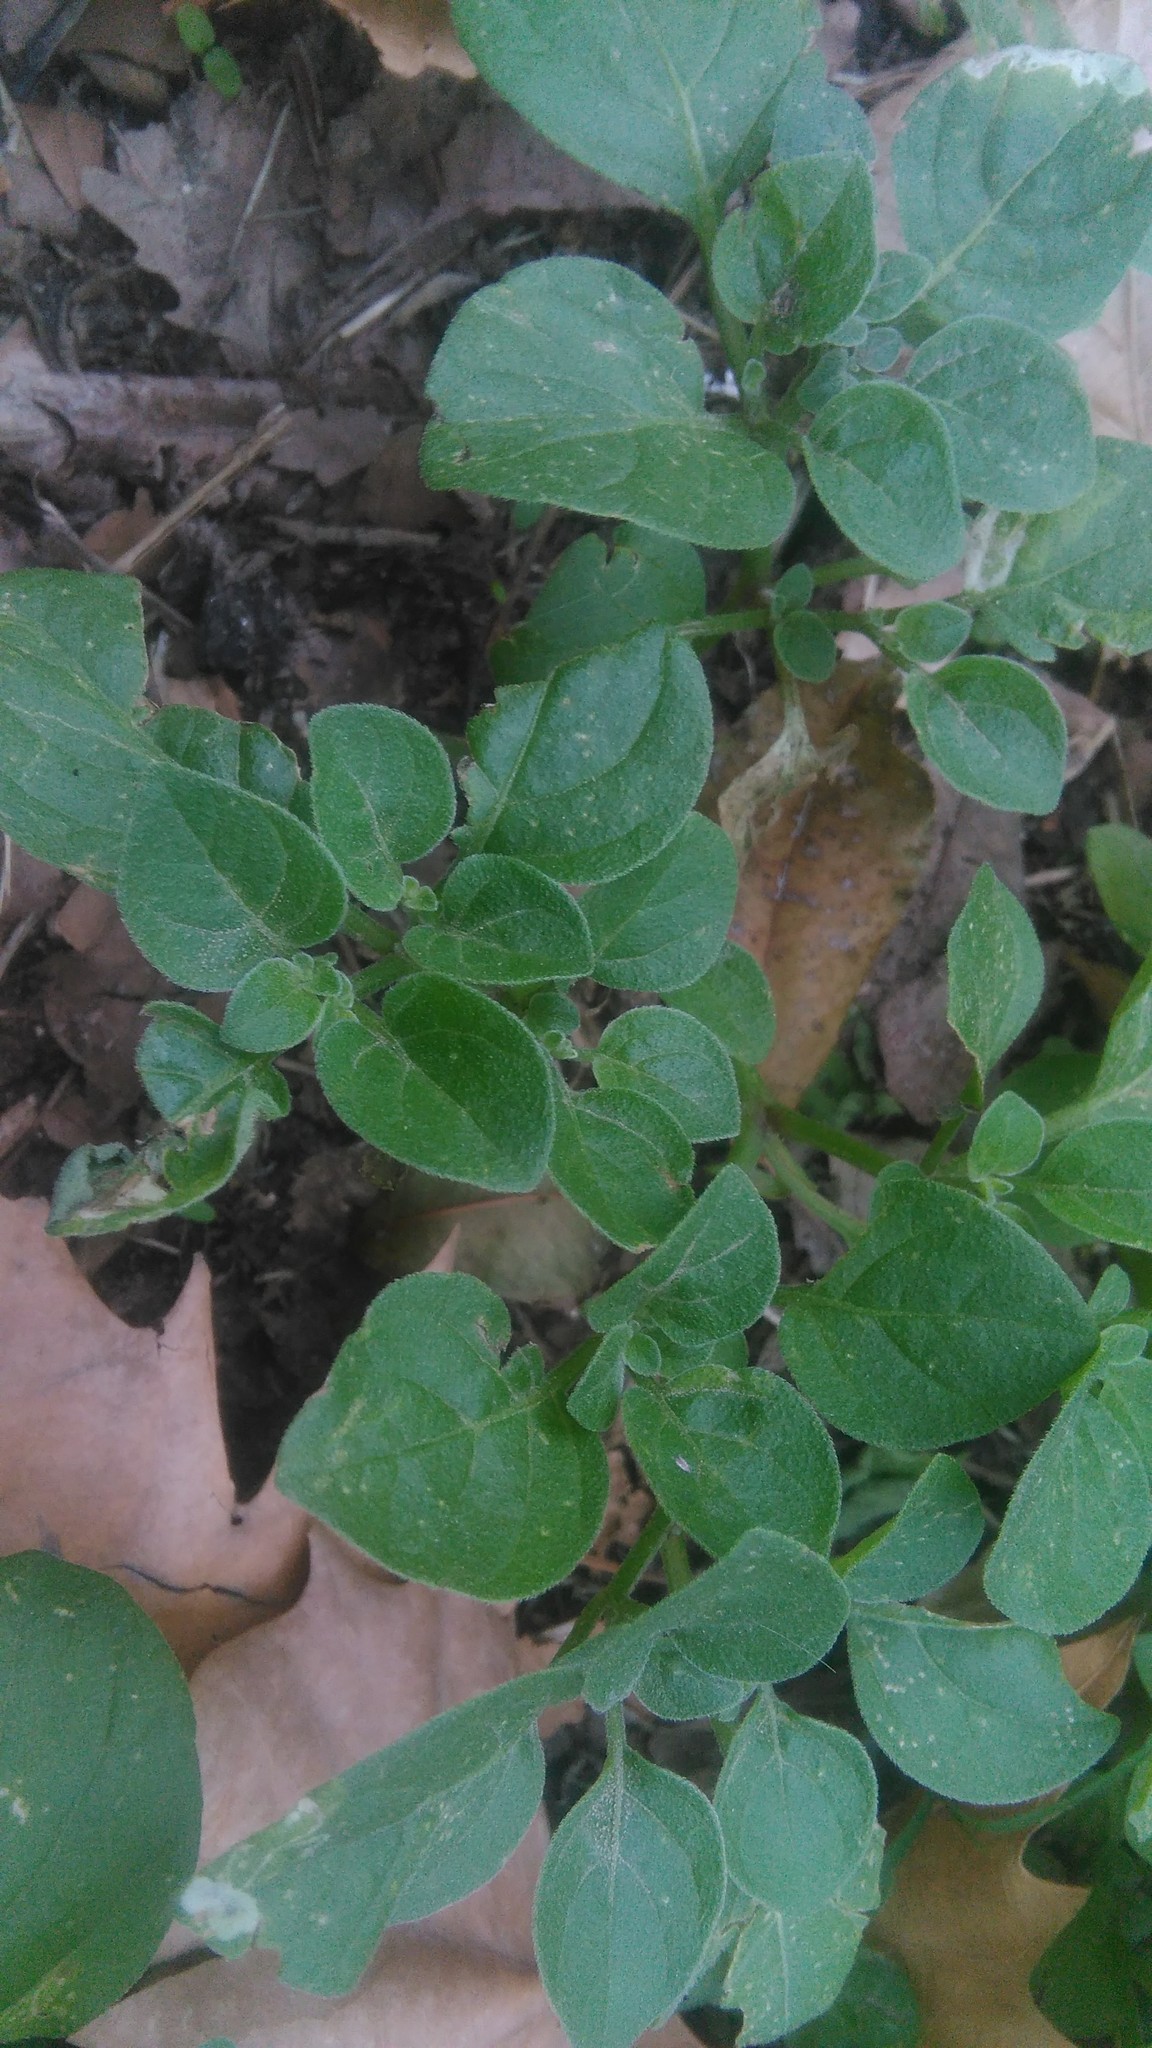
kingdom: Plantae
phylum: Tracheophyta
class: Magnoliopsida
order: Solanales
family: Solanaceae
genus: Salpichroa
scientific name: Salpichroa origanifolia
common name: Lily-of-the-valley-vine
